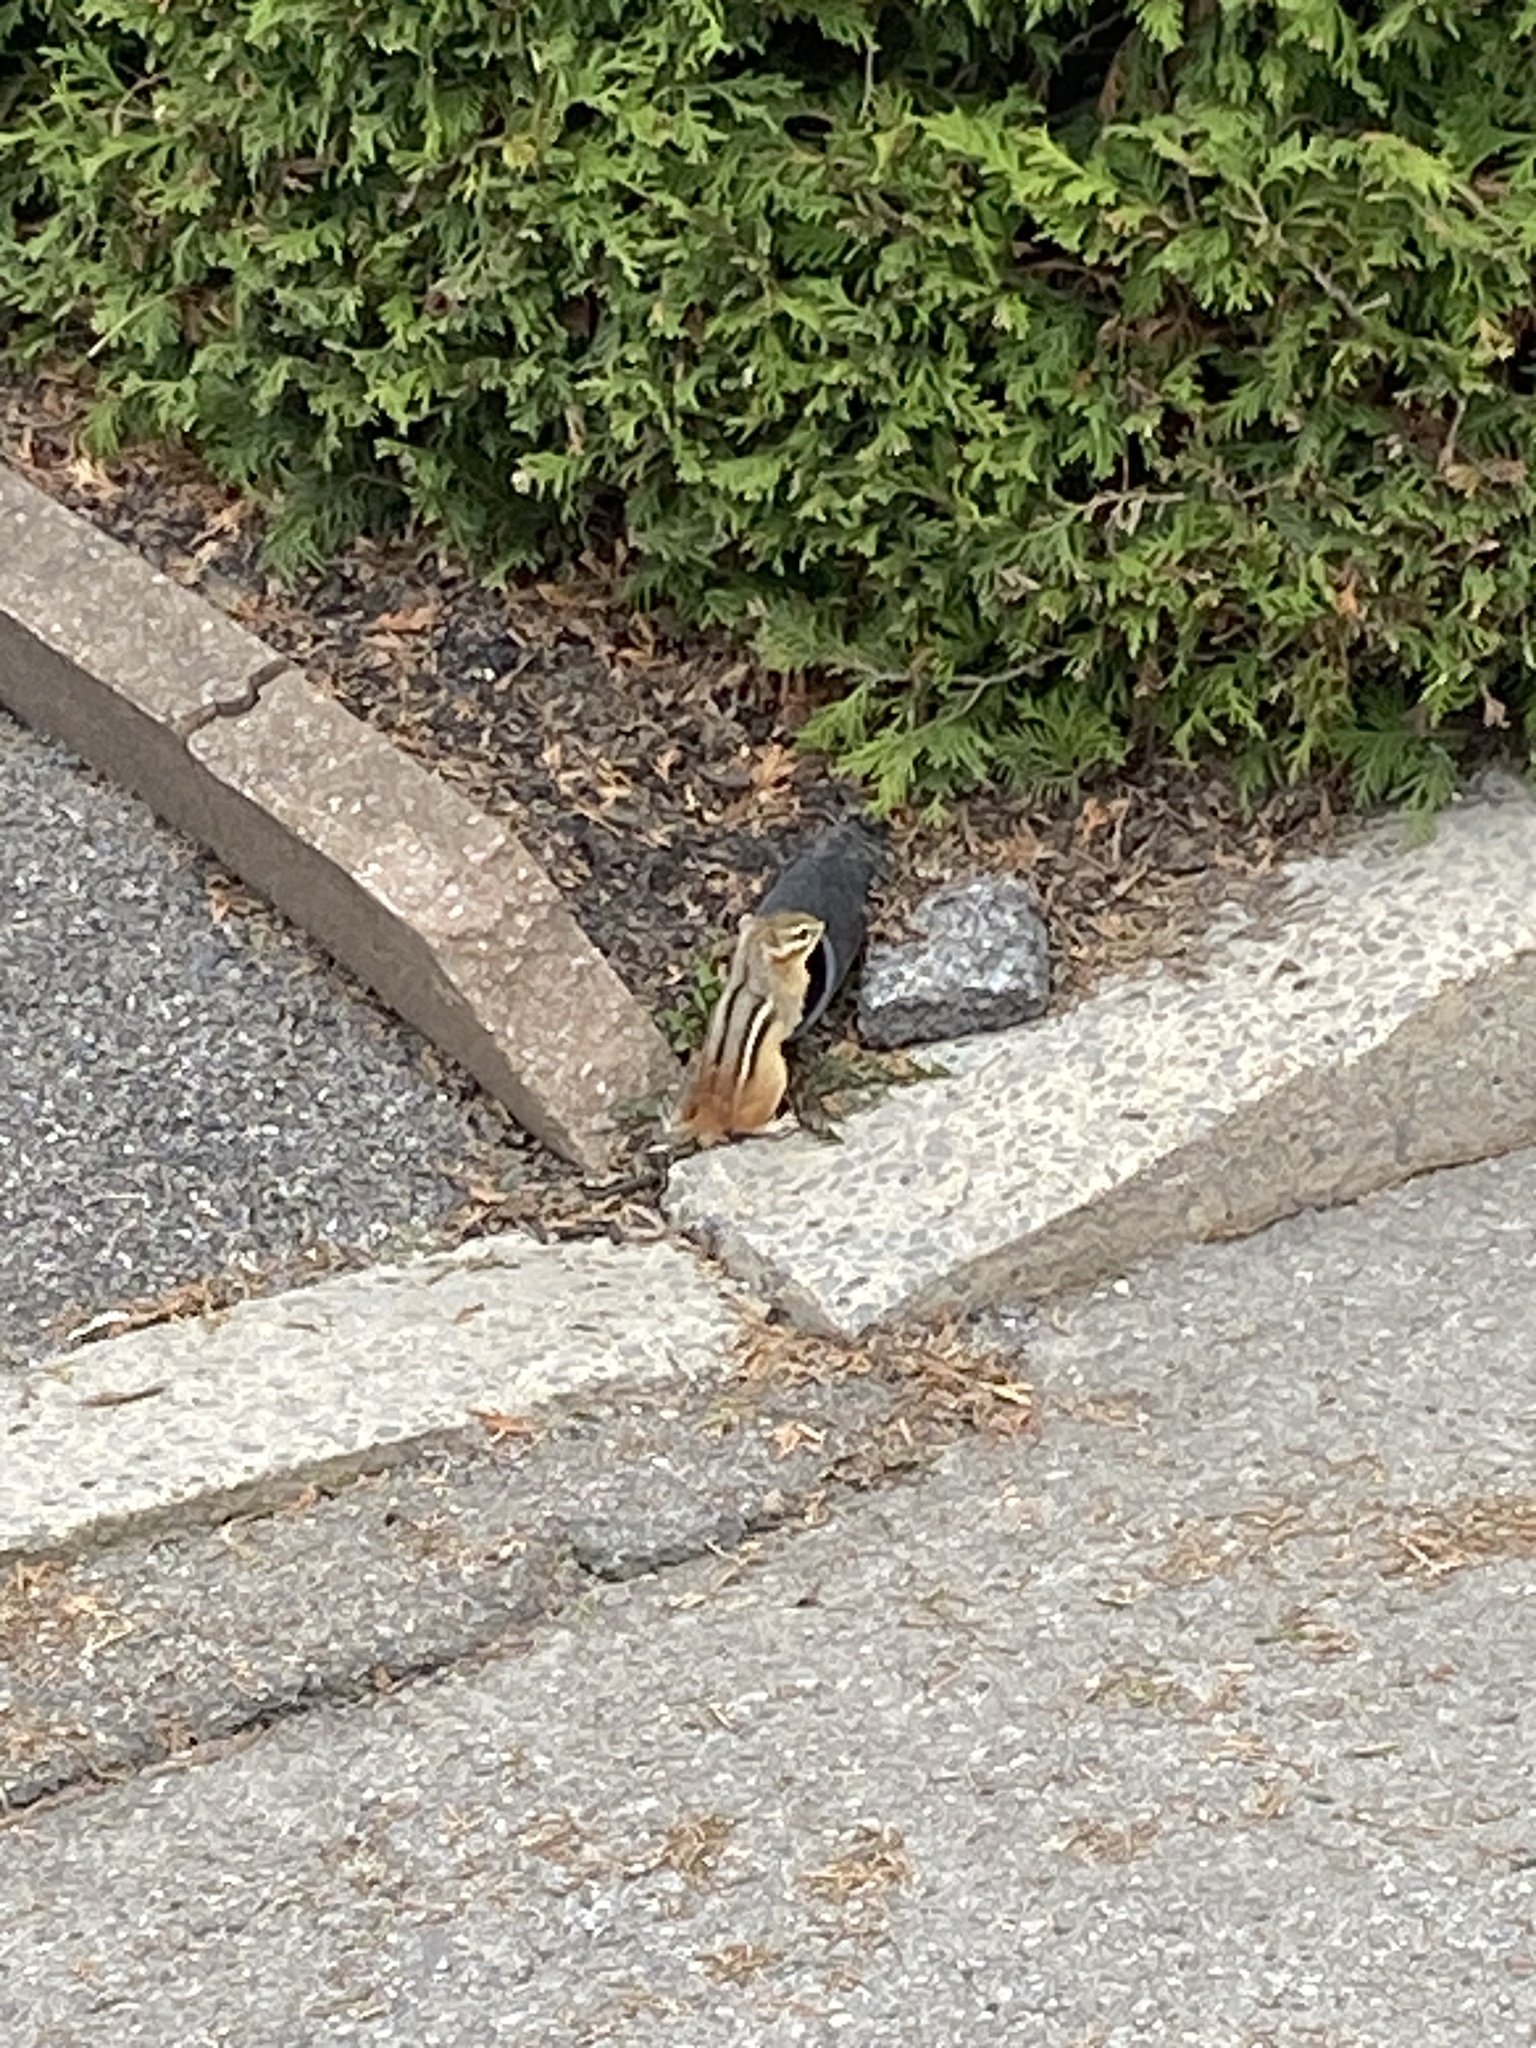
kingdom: Animalia
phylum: Chordata
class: Mammalia
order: Rodentia
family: Sciuridae
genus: Tamias
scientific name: Tamias striatus
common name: Eastern chipmunk
